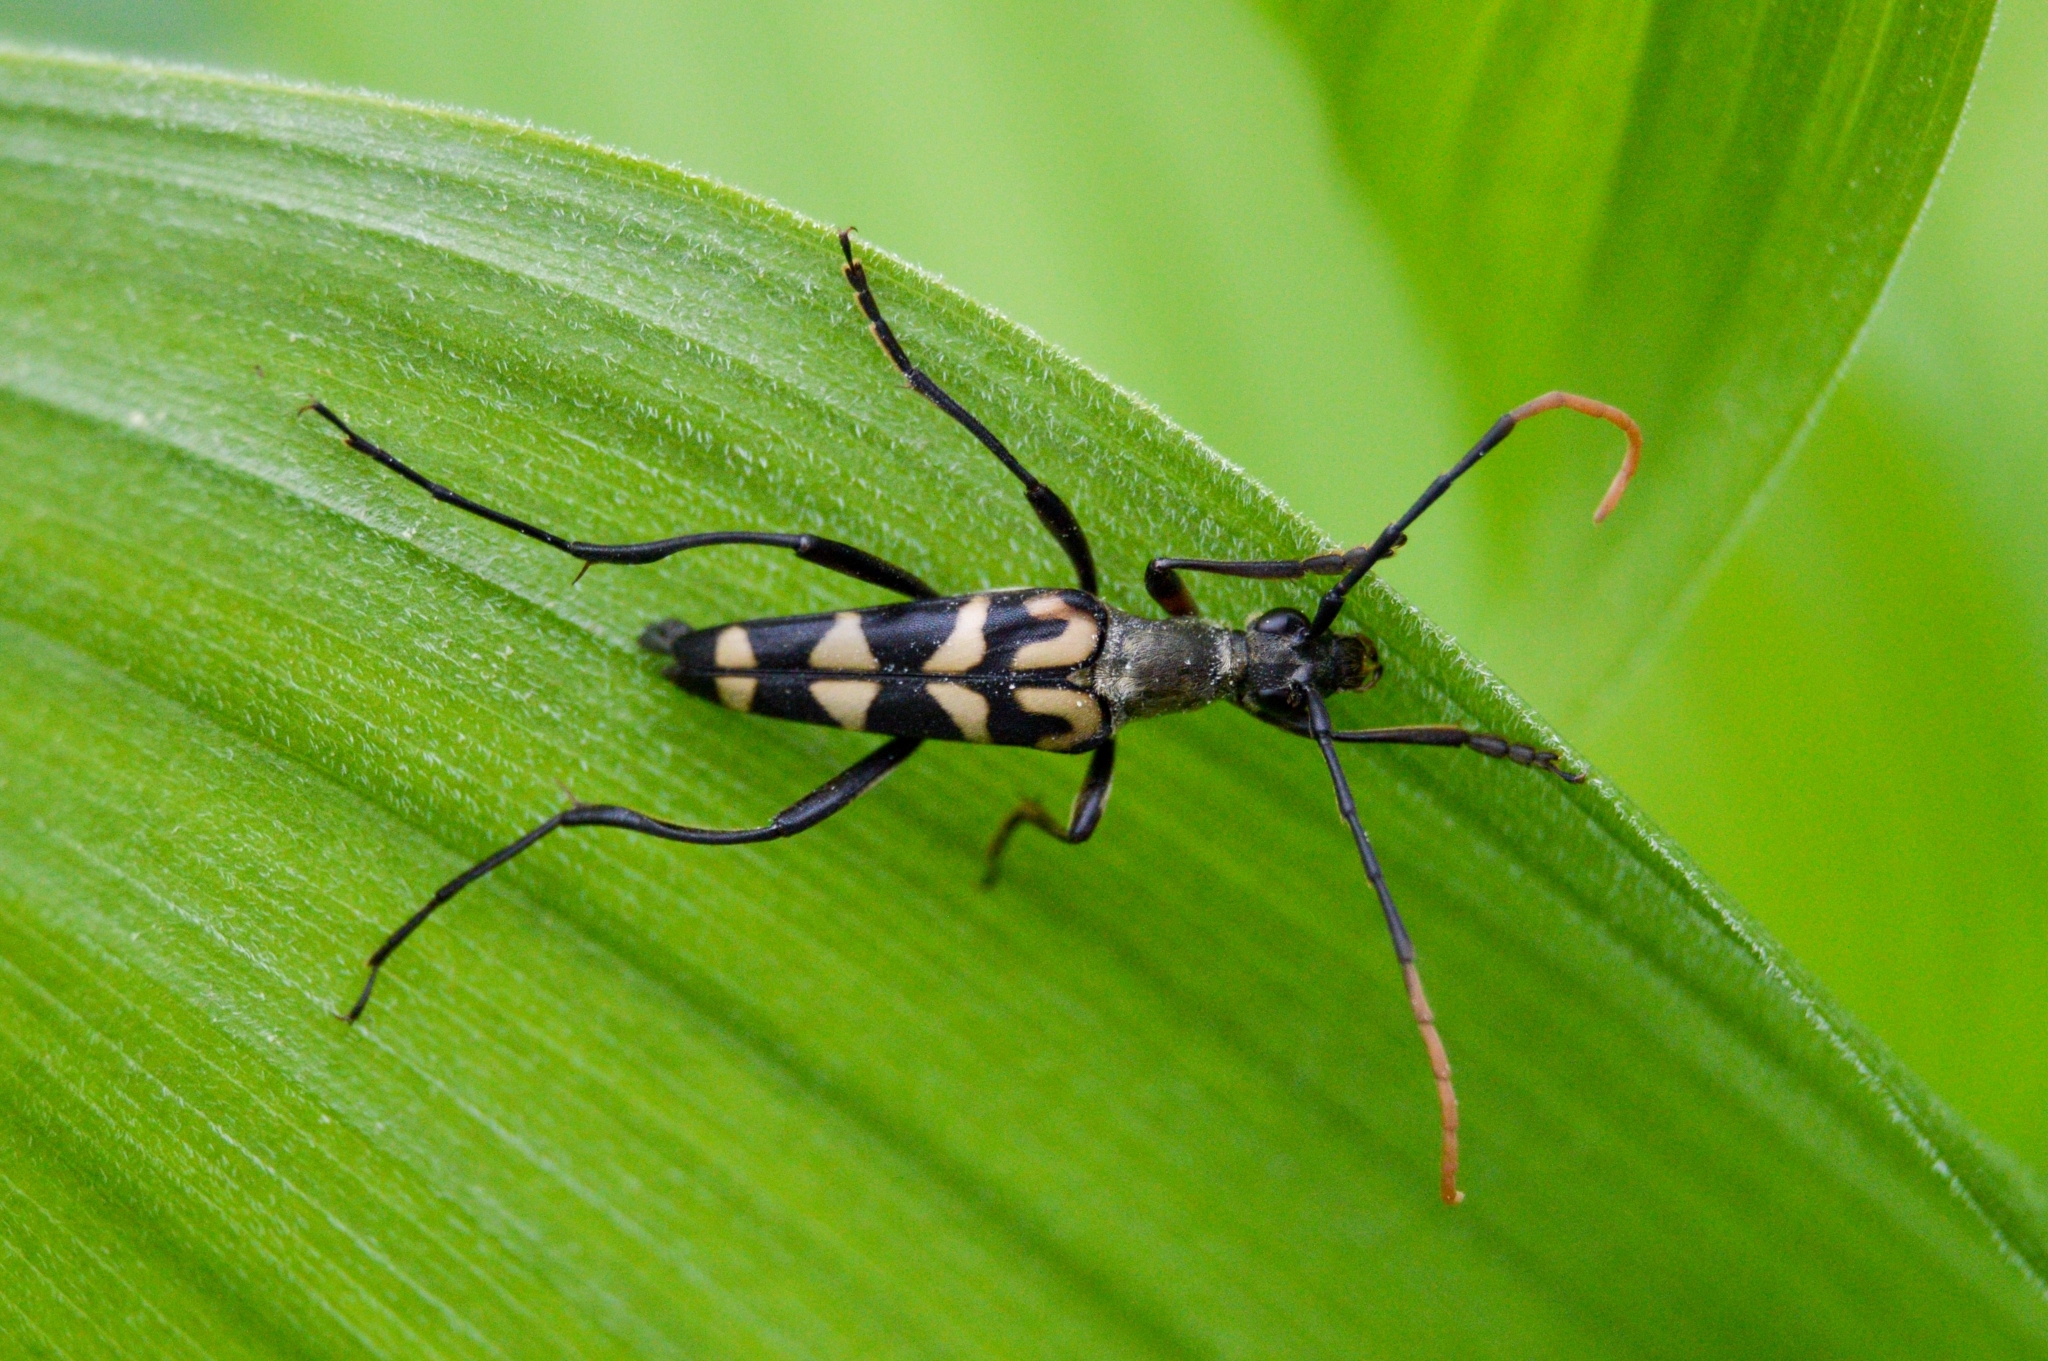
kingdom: Animalia
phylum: Arthropoda
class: Insecta
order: Coleoptera
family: Cerambycidae
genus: Leptura
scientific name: Leptura annularis
